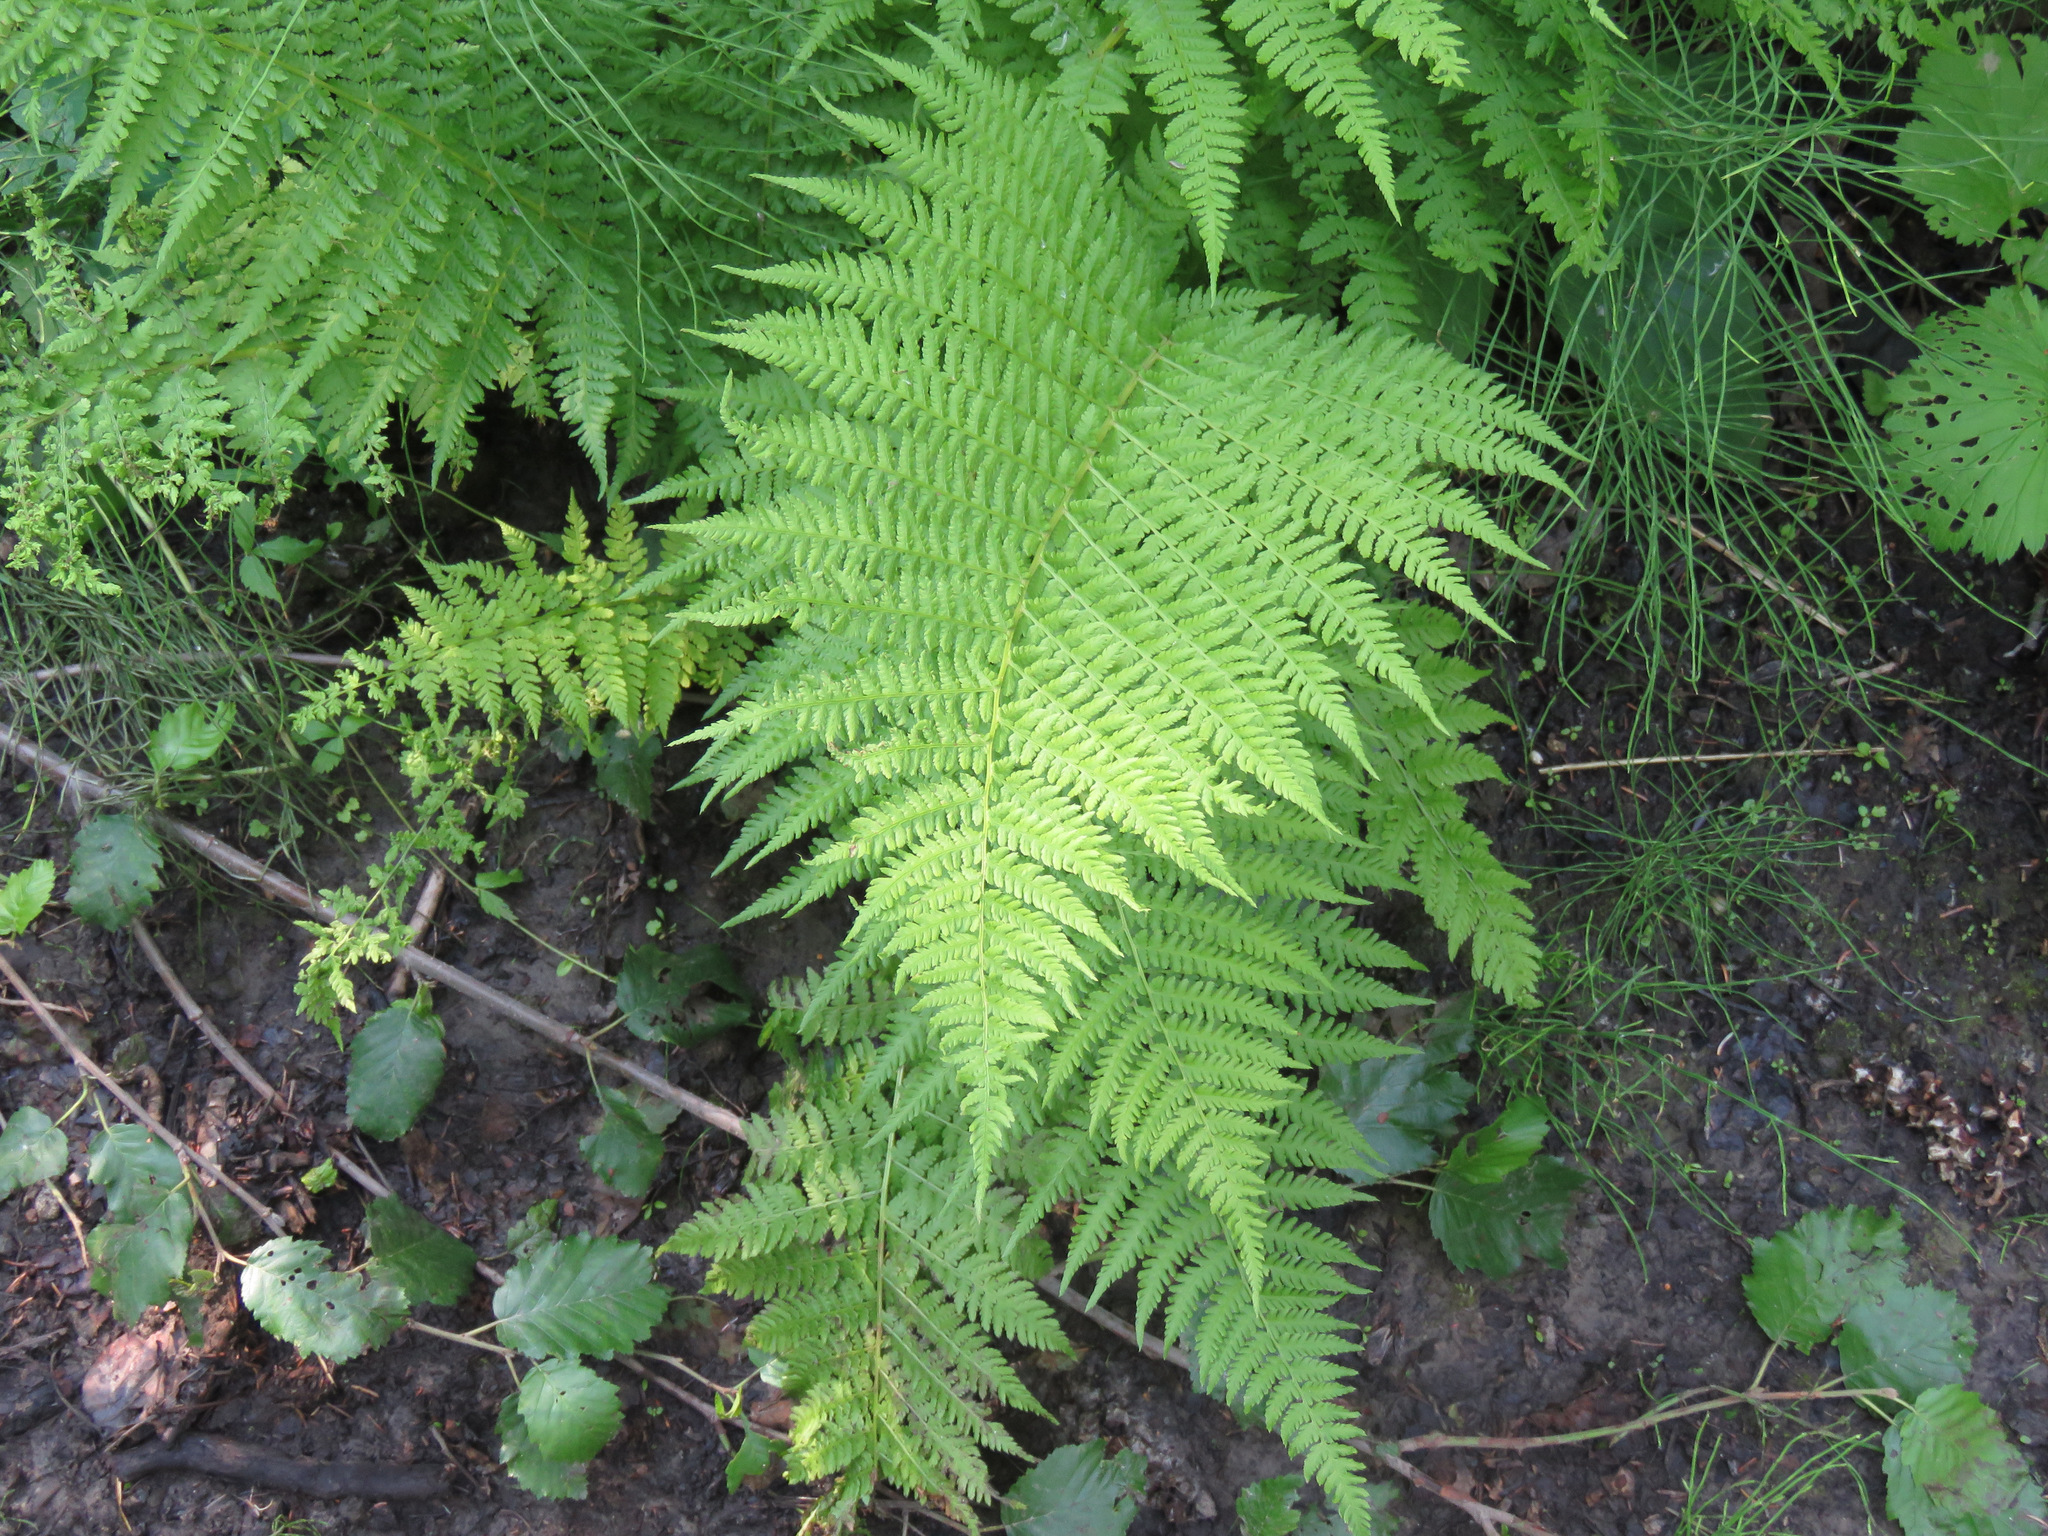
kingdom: Plantae
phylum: Tracheophyta
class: Polypodiopsida
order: Polypodiales
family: Athyriaceae
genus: Athyrium
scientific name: Athyrium filix-femina
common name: Lady fern
